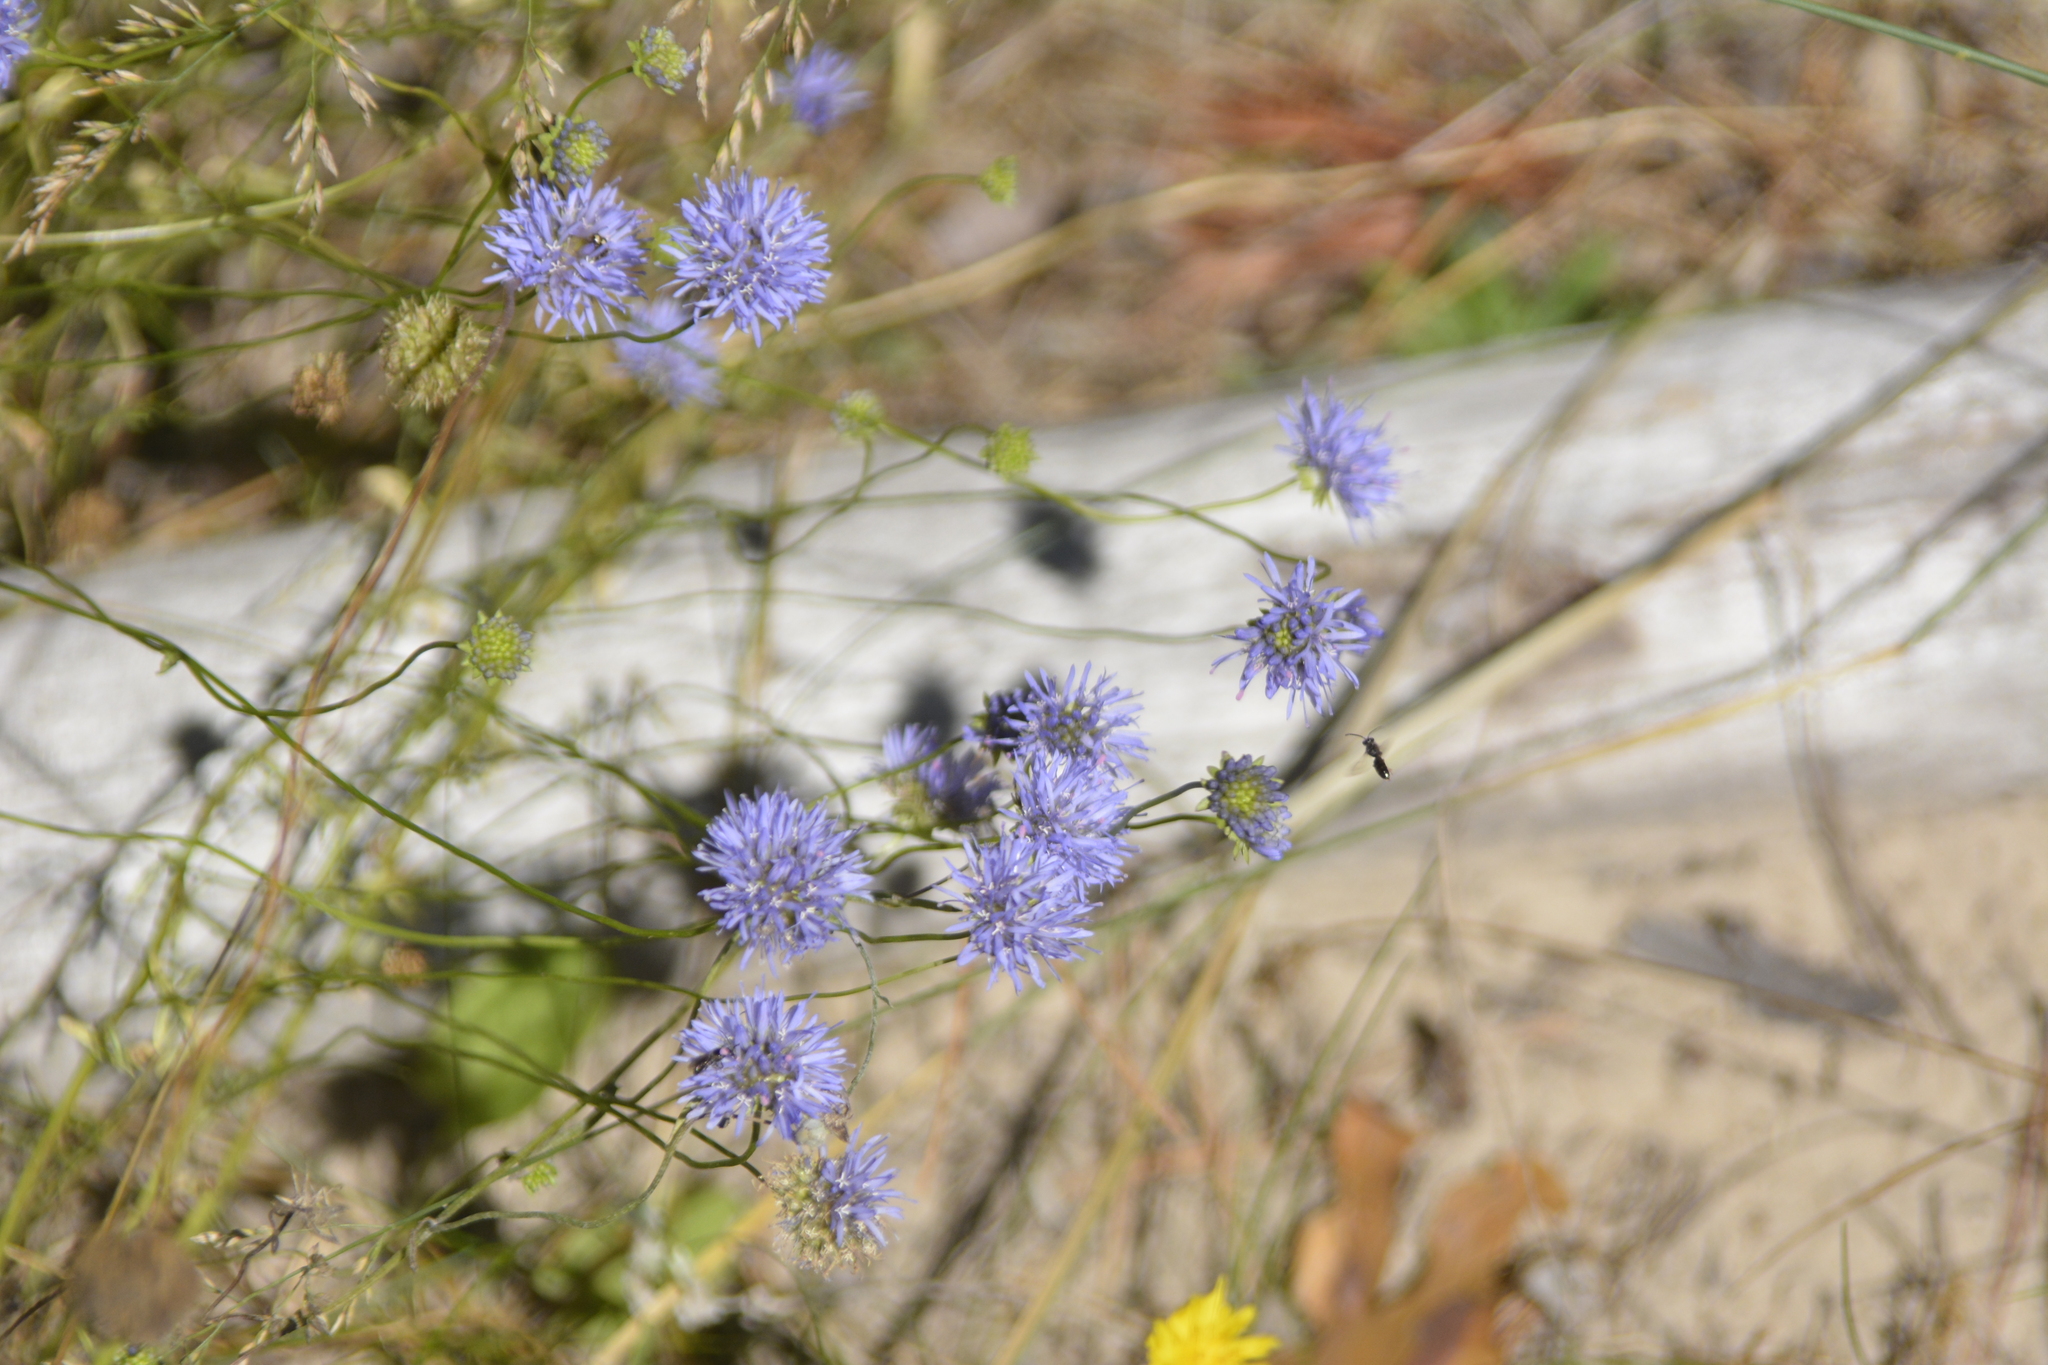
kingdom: Plantae
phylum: Tracheophyta
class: Magnoliopsida
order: Asterales
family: Campanulaceae
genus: Jasione
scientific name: Jasione montana
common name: Sheep's-bit
